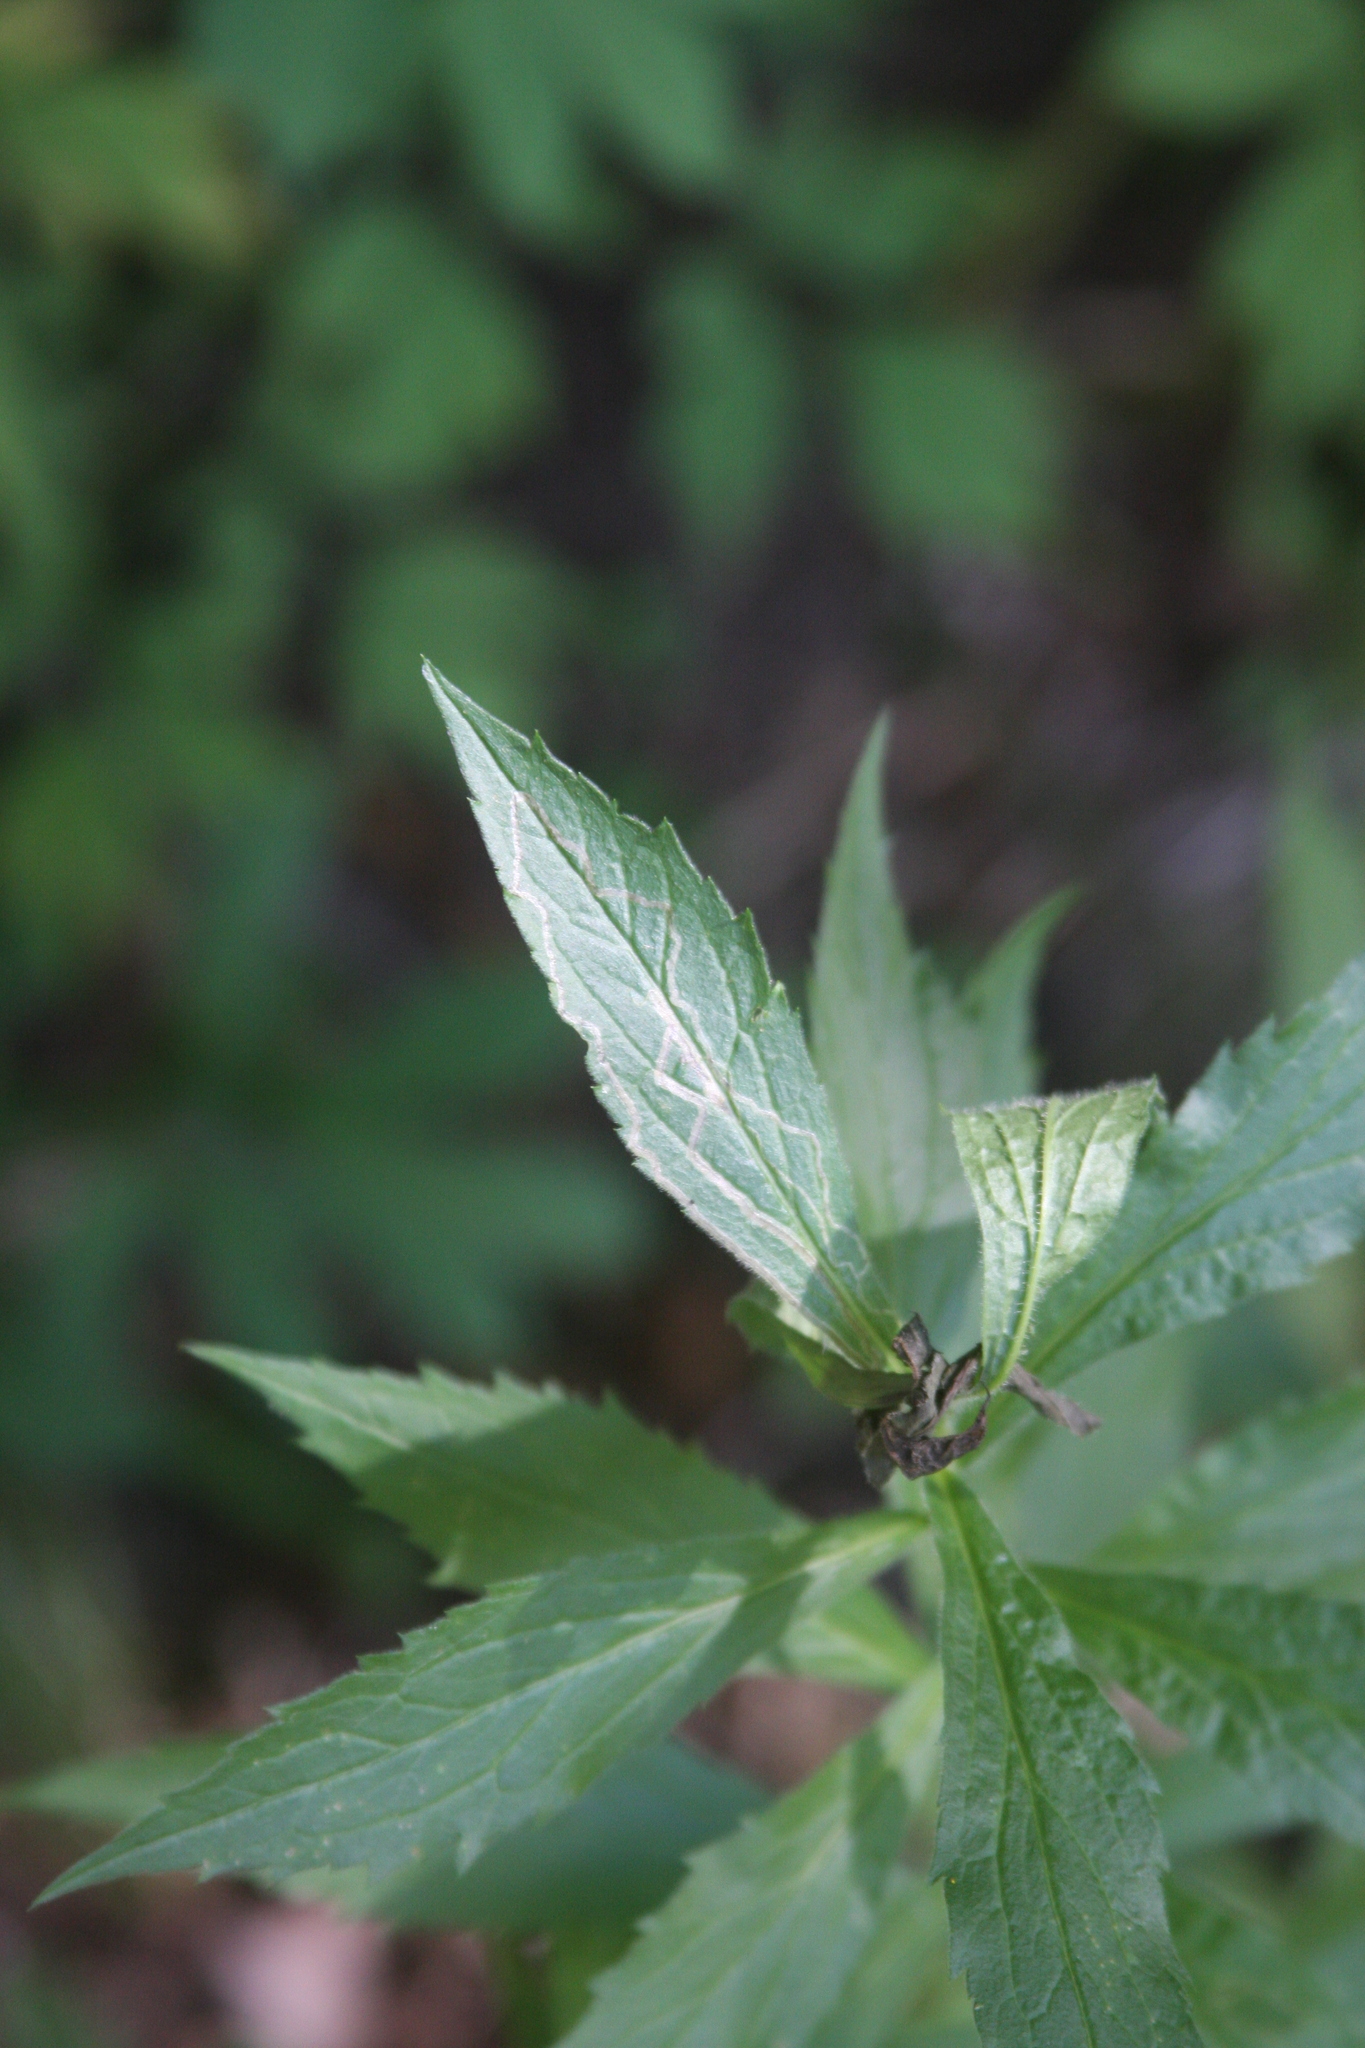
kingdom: Animalia
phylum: Arthropoda
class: Insecta
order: Diptera
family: Agromyzidae
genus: Ophiomyia
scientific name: Ophiomyia maura
